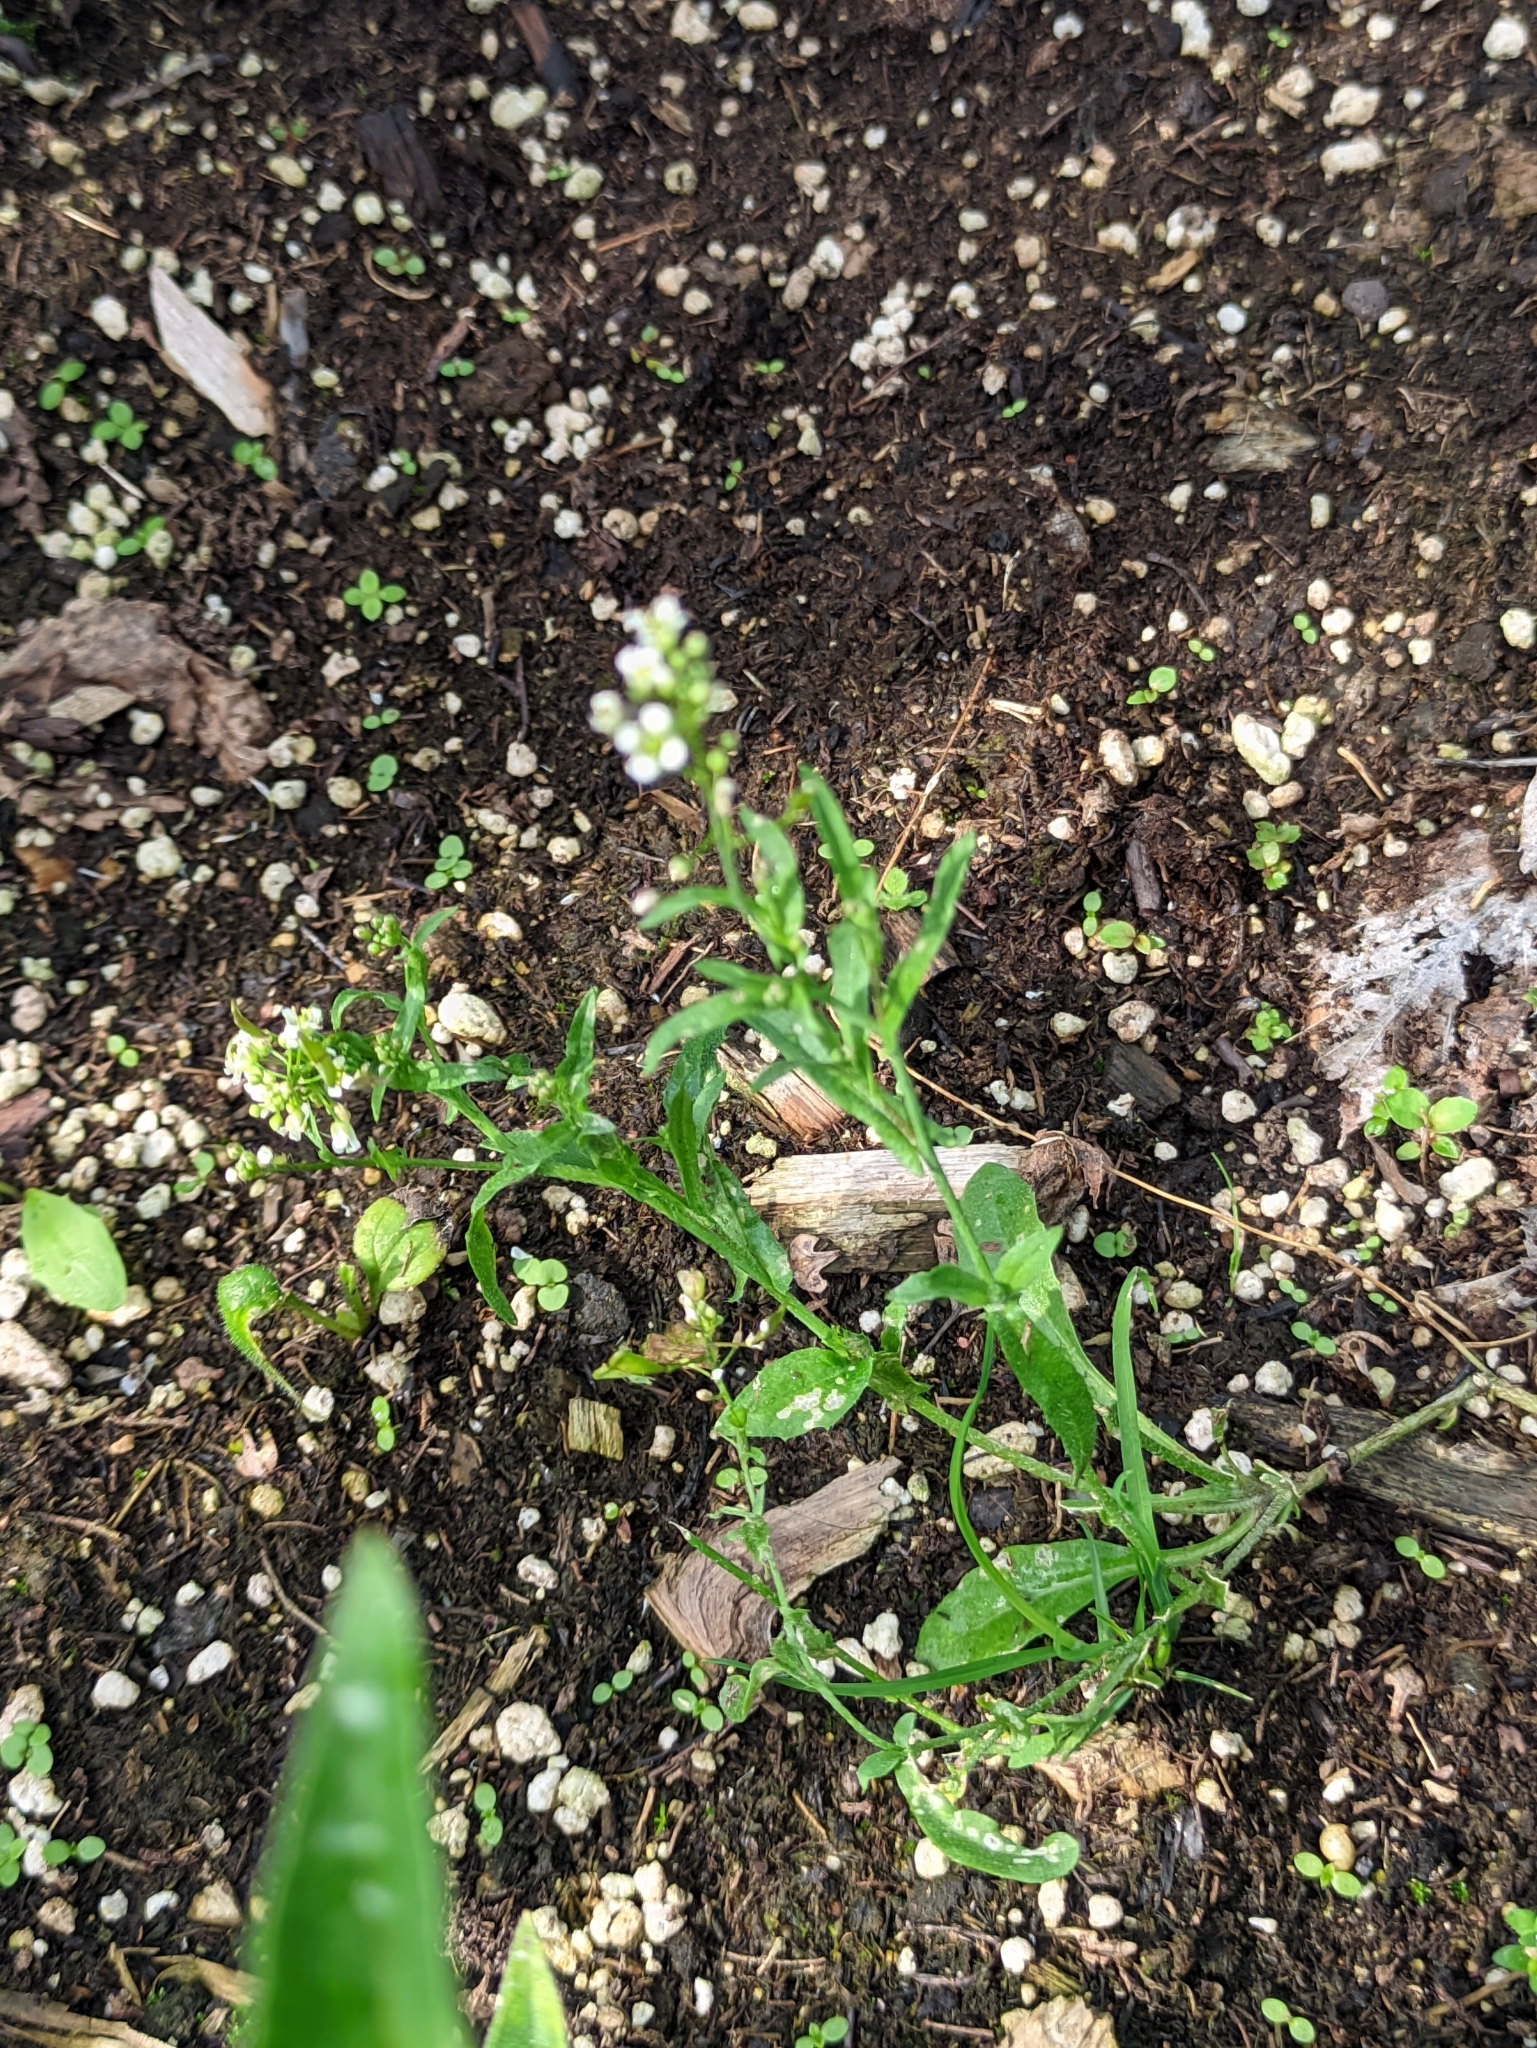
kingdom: Plantae
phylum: Tracheophyta
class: Magnoliopsida
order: Brassicales
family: Brassicaceae
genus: Capsella
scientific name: Capsella bursa-pastoris
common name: Shepherd's purse
